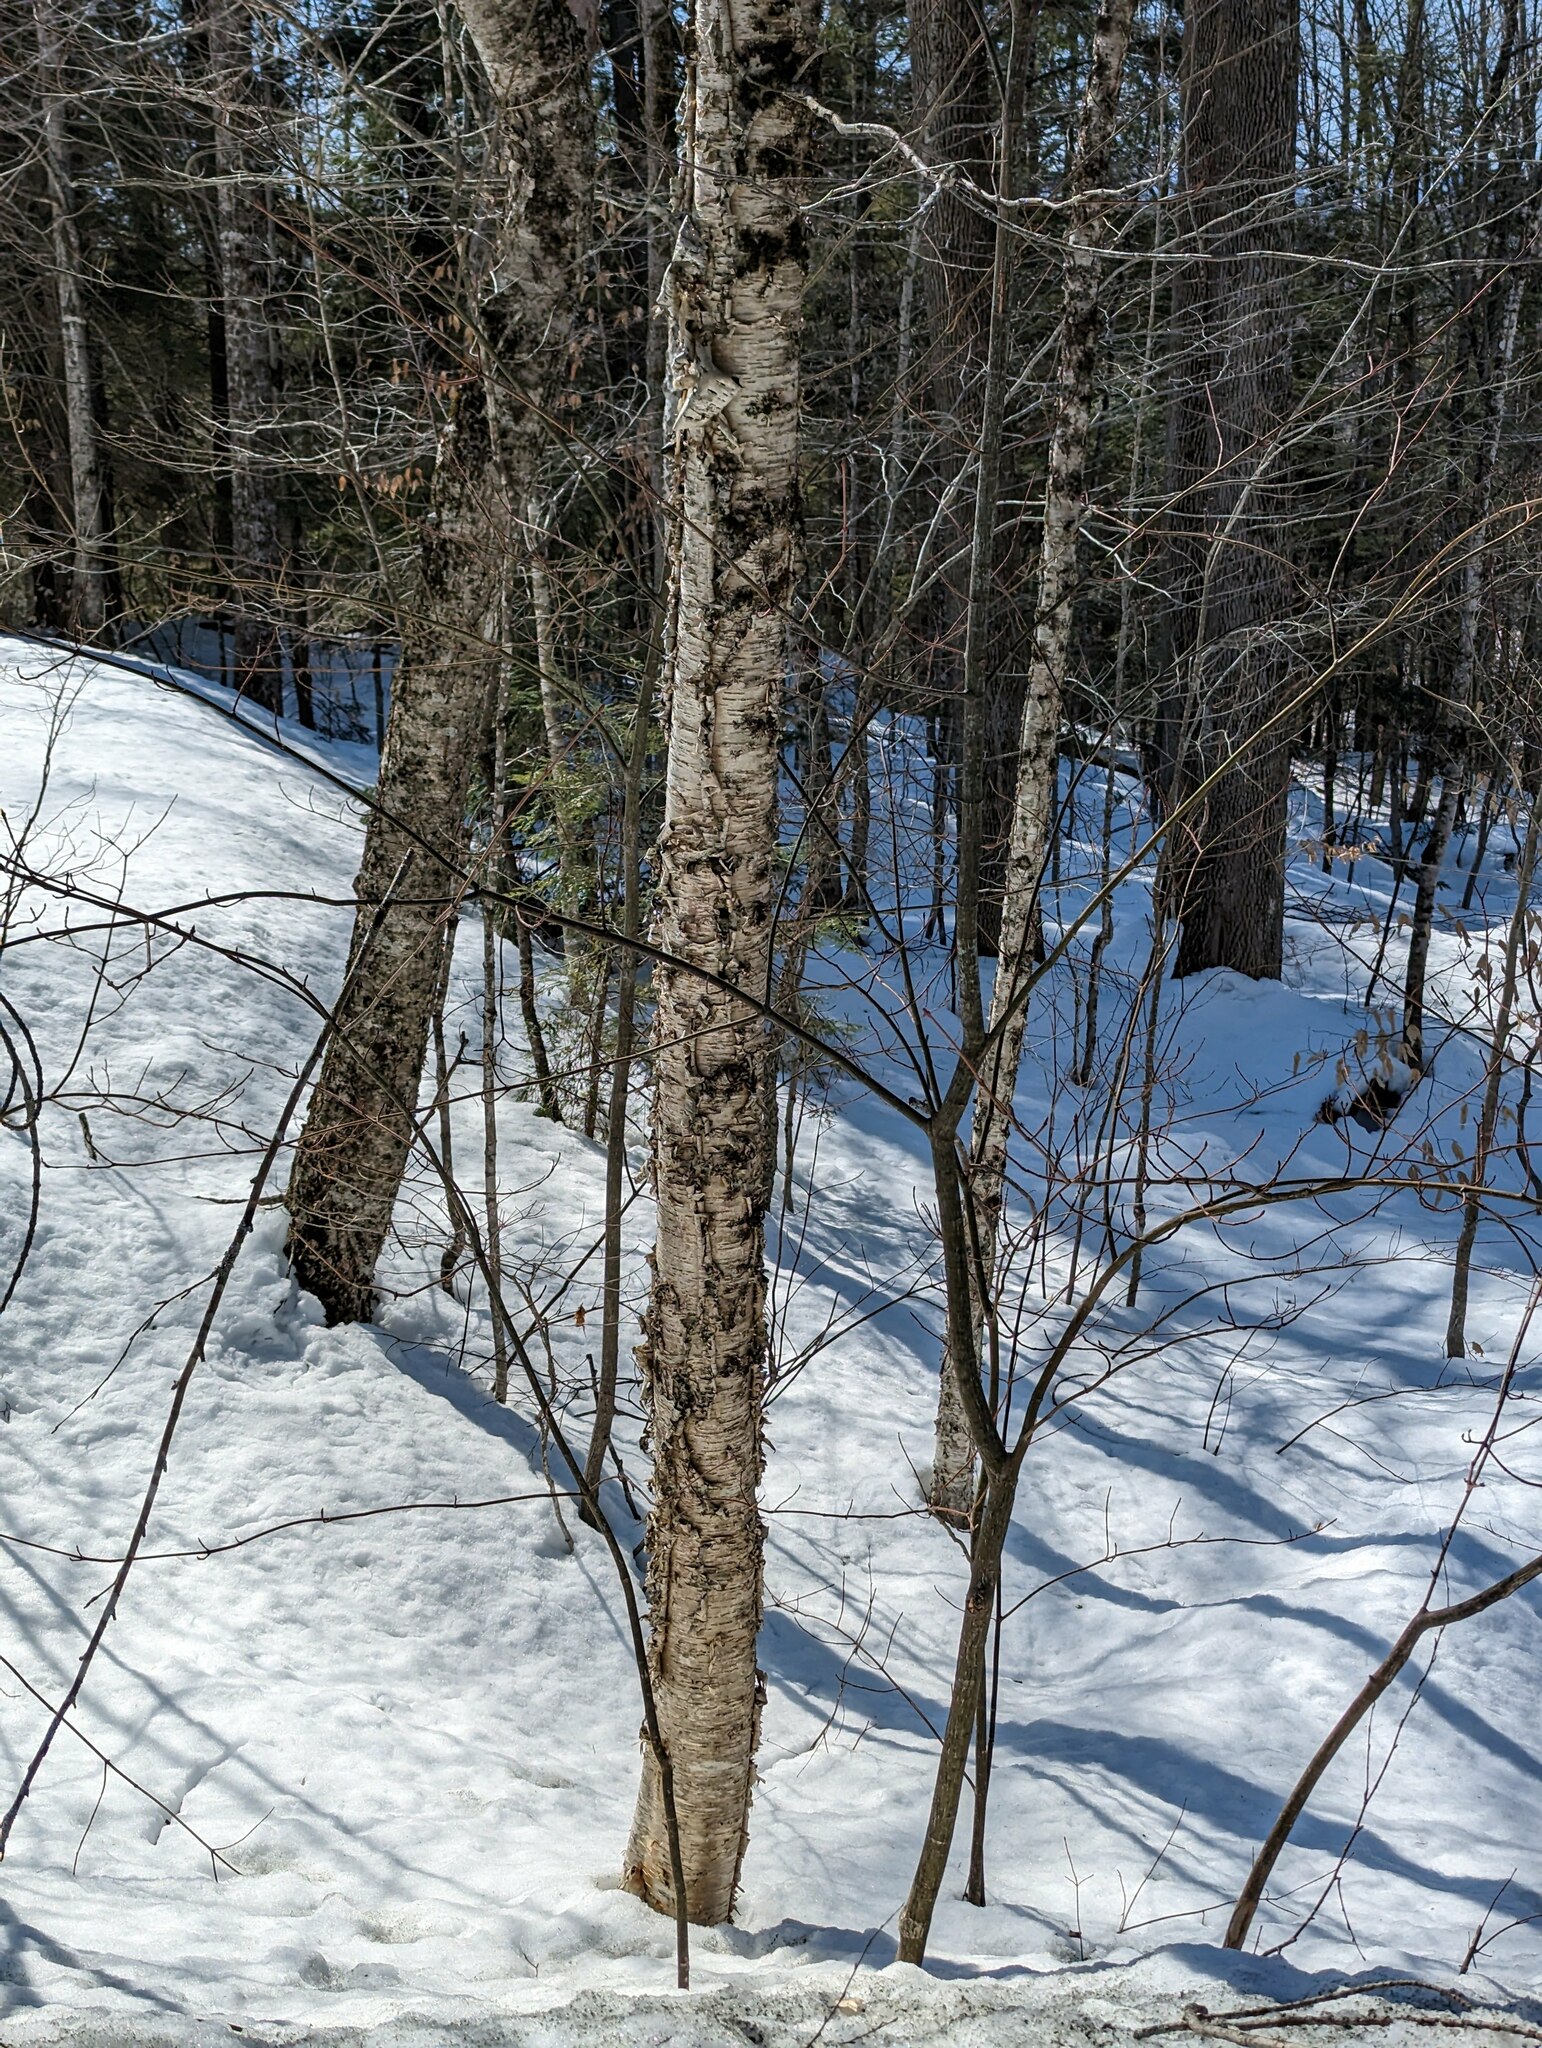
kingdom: Plantae
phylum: Tracheophyta
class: Magnoliopsida
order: Fagales
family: Betulaceae
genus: Betula
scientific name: Betula alleghaniensis
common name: Yellow birch
